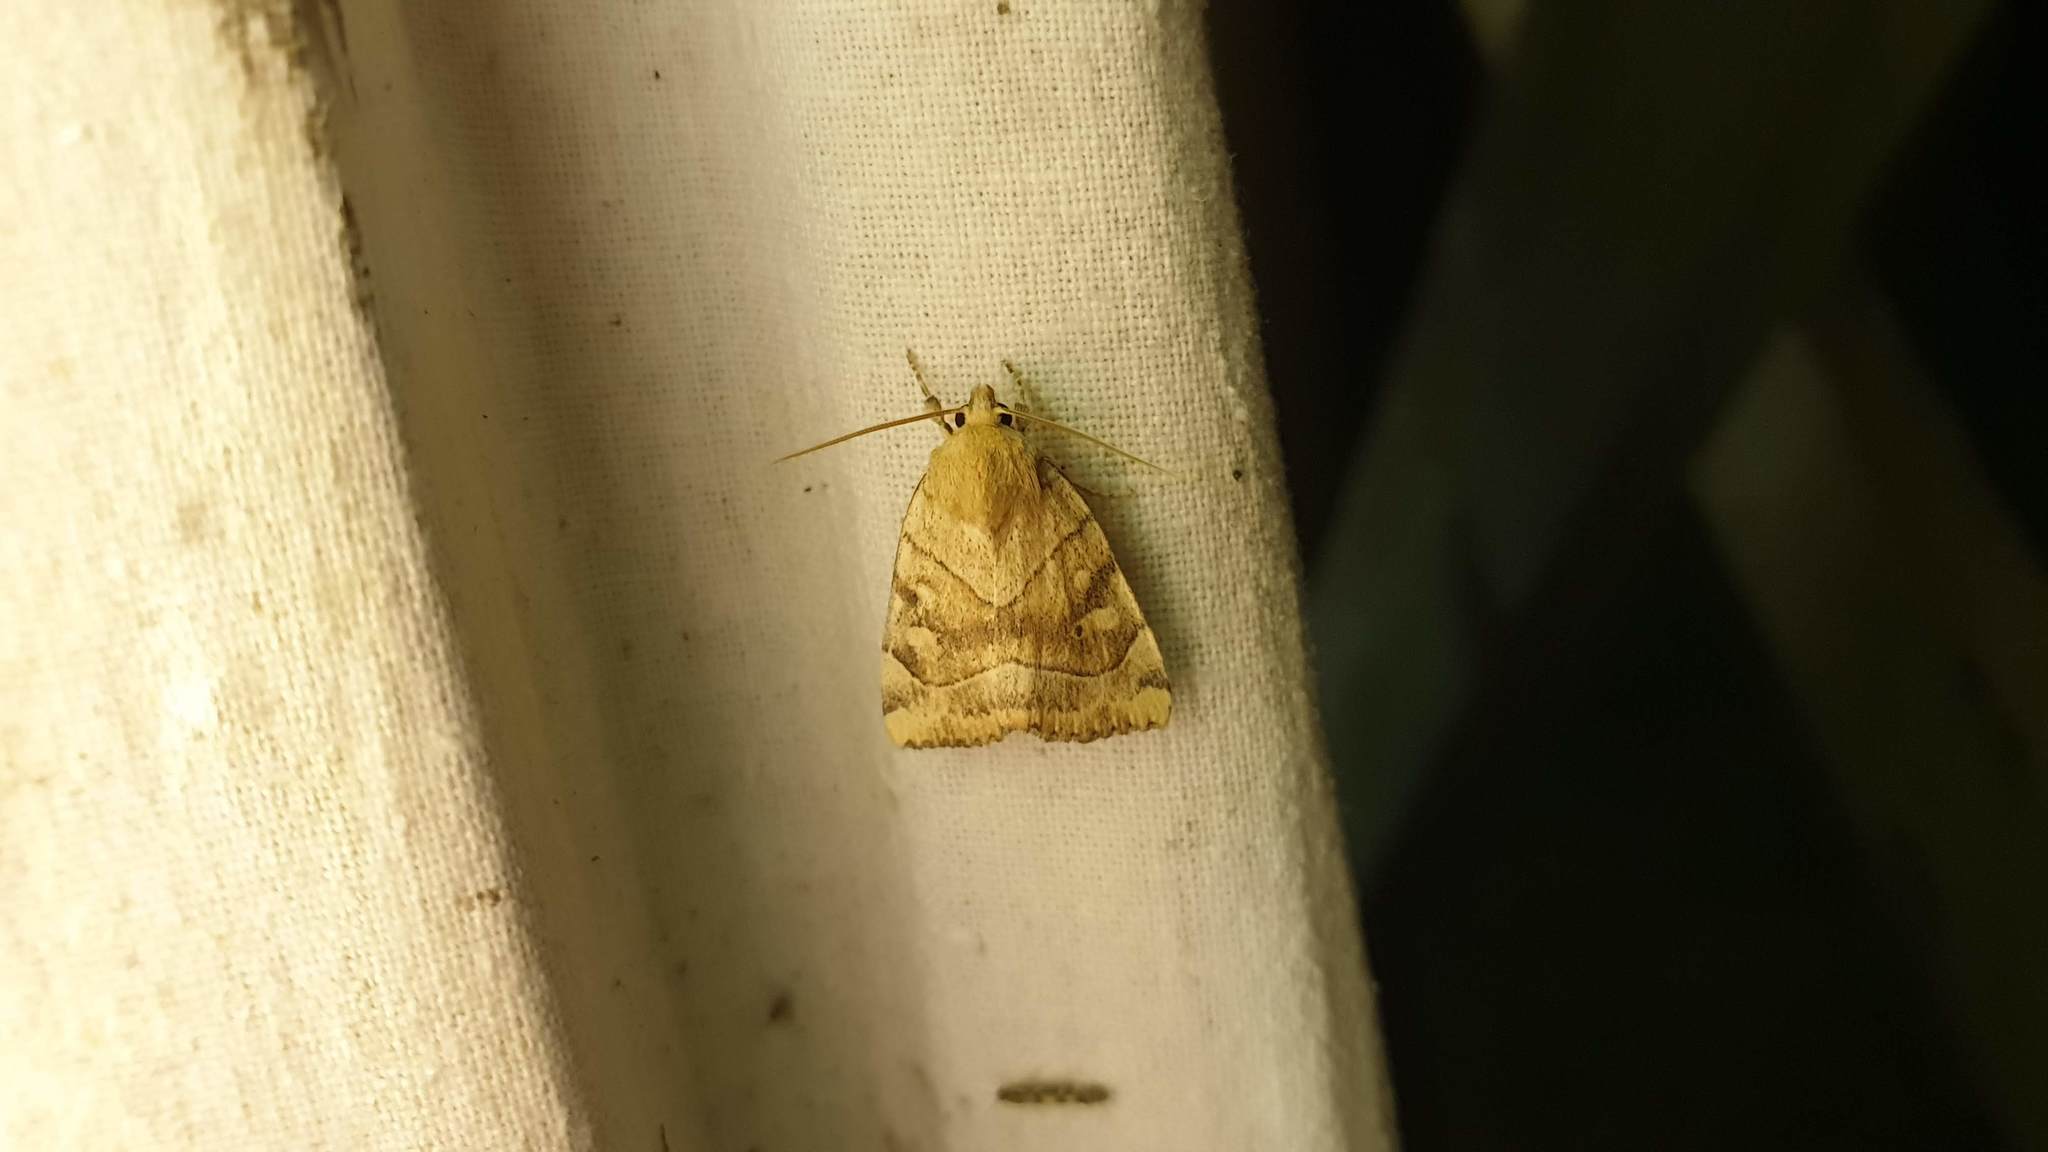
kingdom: Animalia
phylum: Arthropoda
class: Insecta
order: Lepidoptera
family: Noctuidae
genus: Cosmia
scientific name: Cosmia trapezina
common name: Dun-bar
